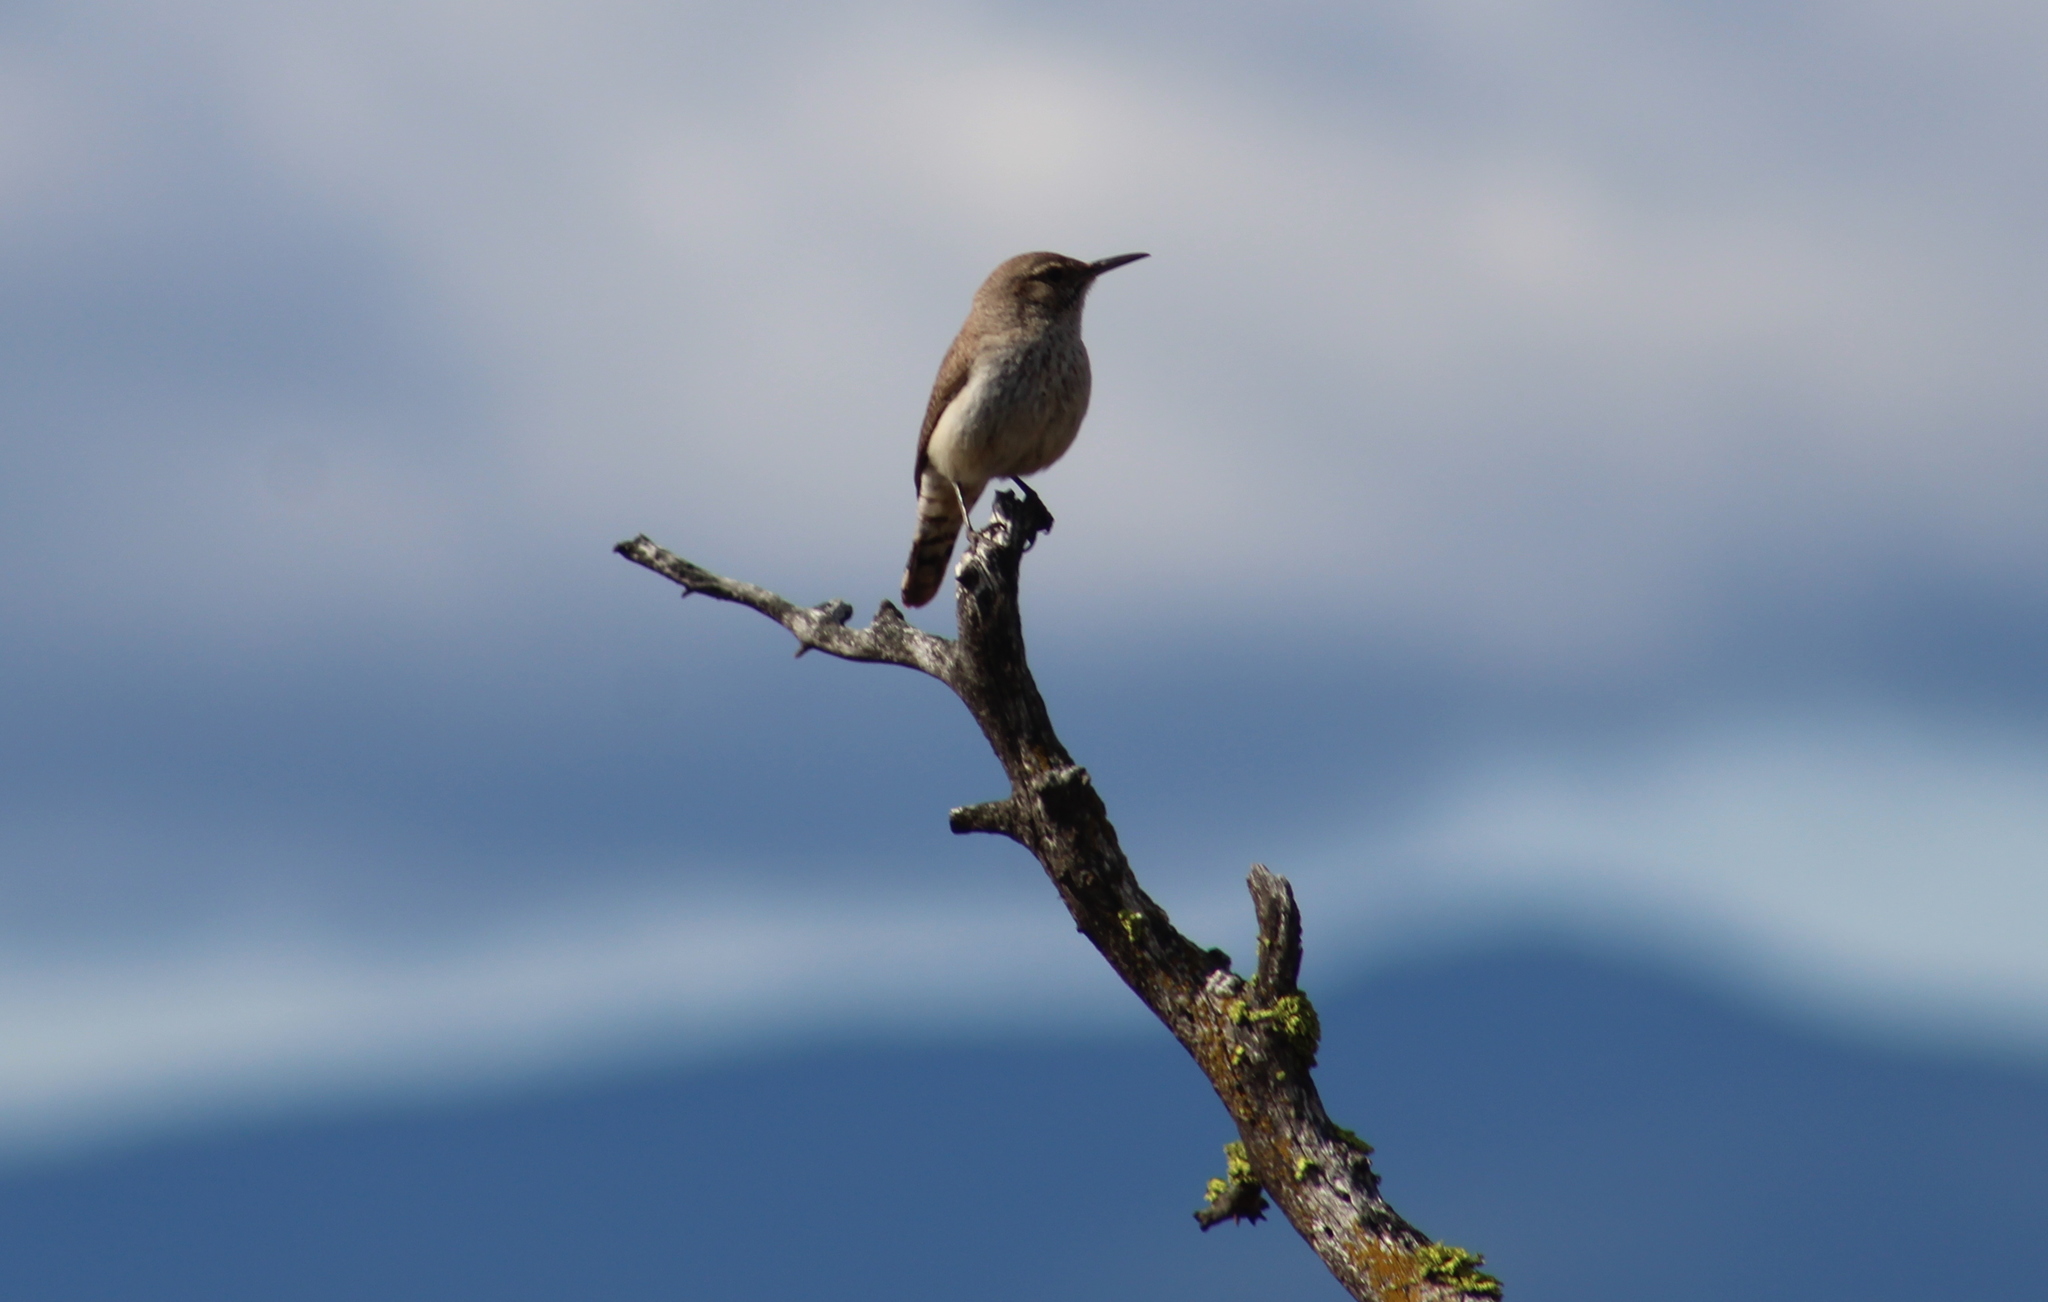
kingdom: Animalia
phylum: Chordata
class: Aves
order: Passeriformes
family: Troglodytidae
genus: Salpinctes
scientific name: Salpinctes obsoletus
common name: Rock wren
